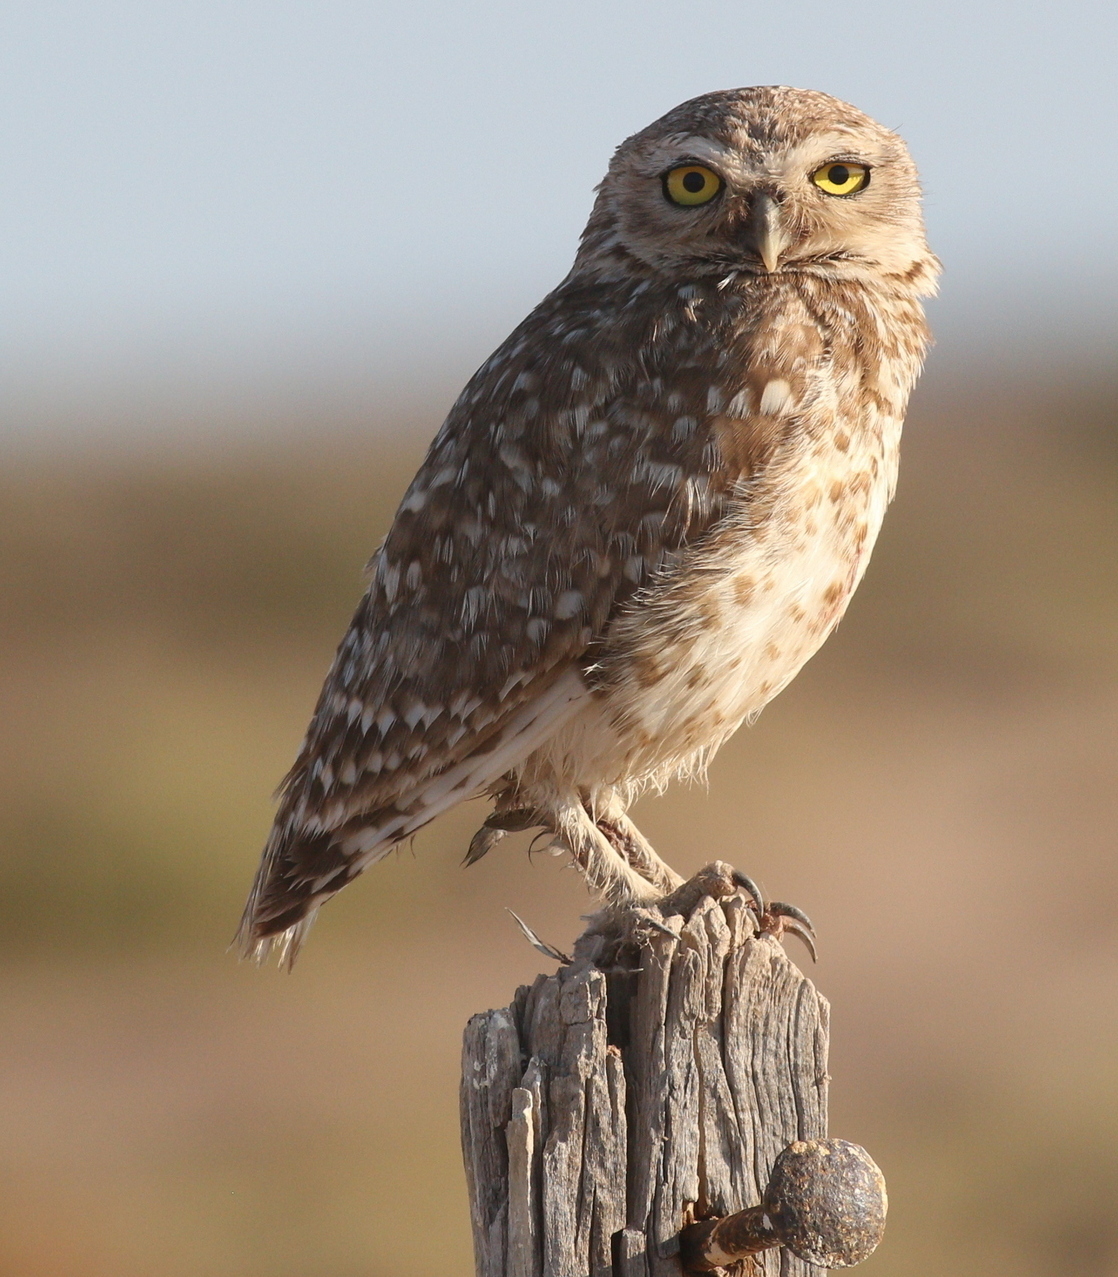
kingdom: Animalia
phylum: Chordata
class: Aves
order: Strigiformes
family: Strigidae
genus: Athene
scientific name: Athene cunicularia
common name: Burrowing owl
